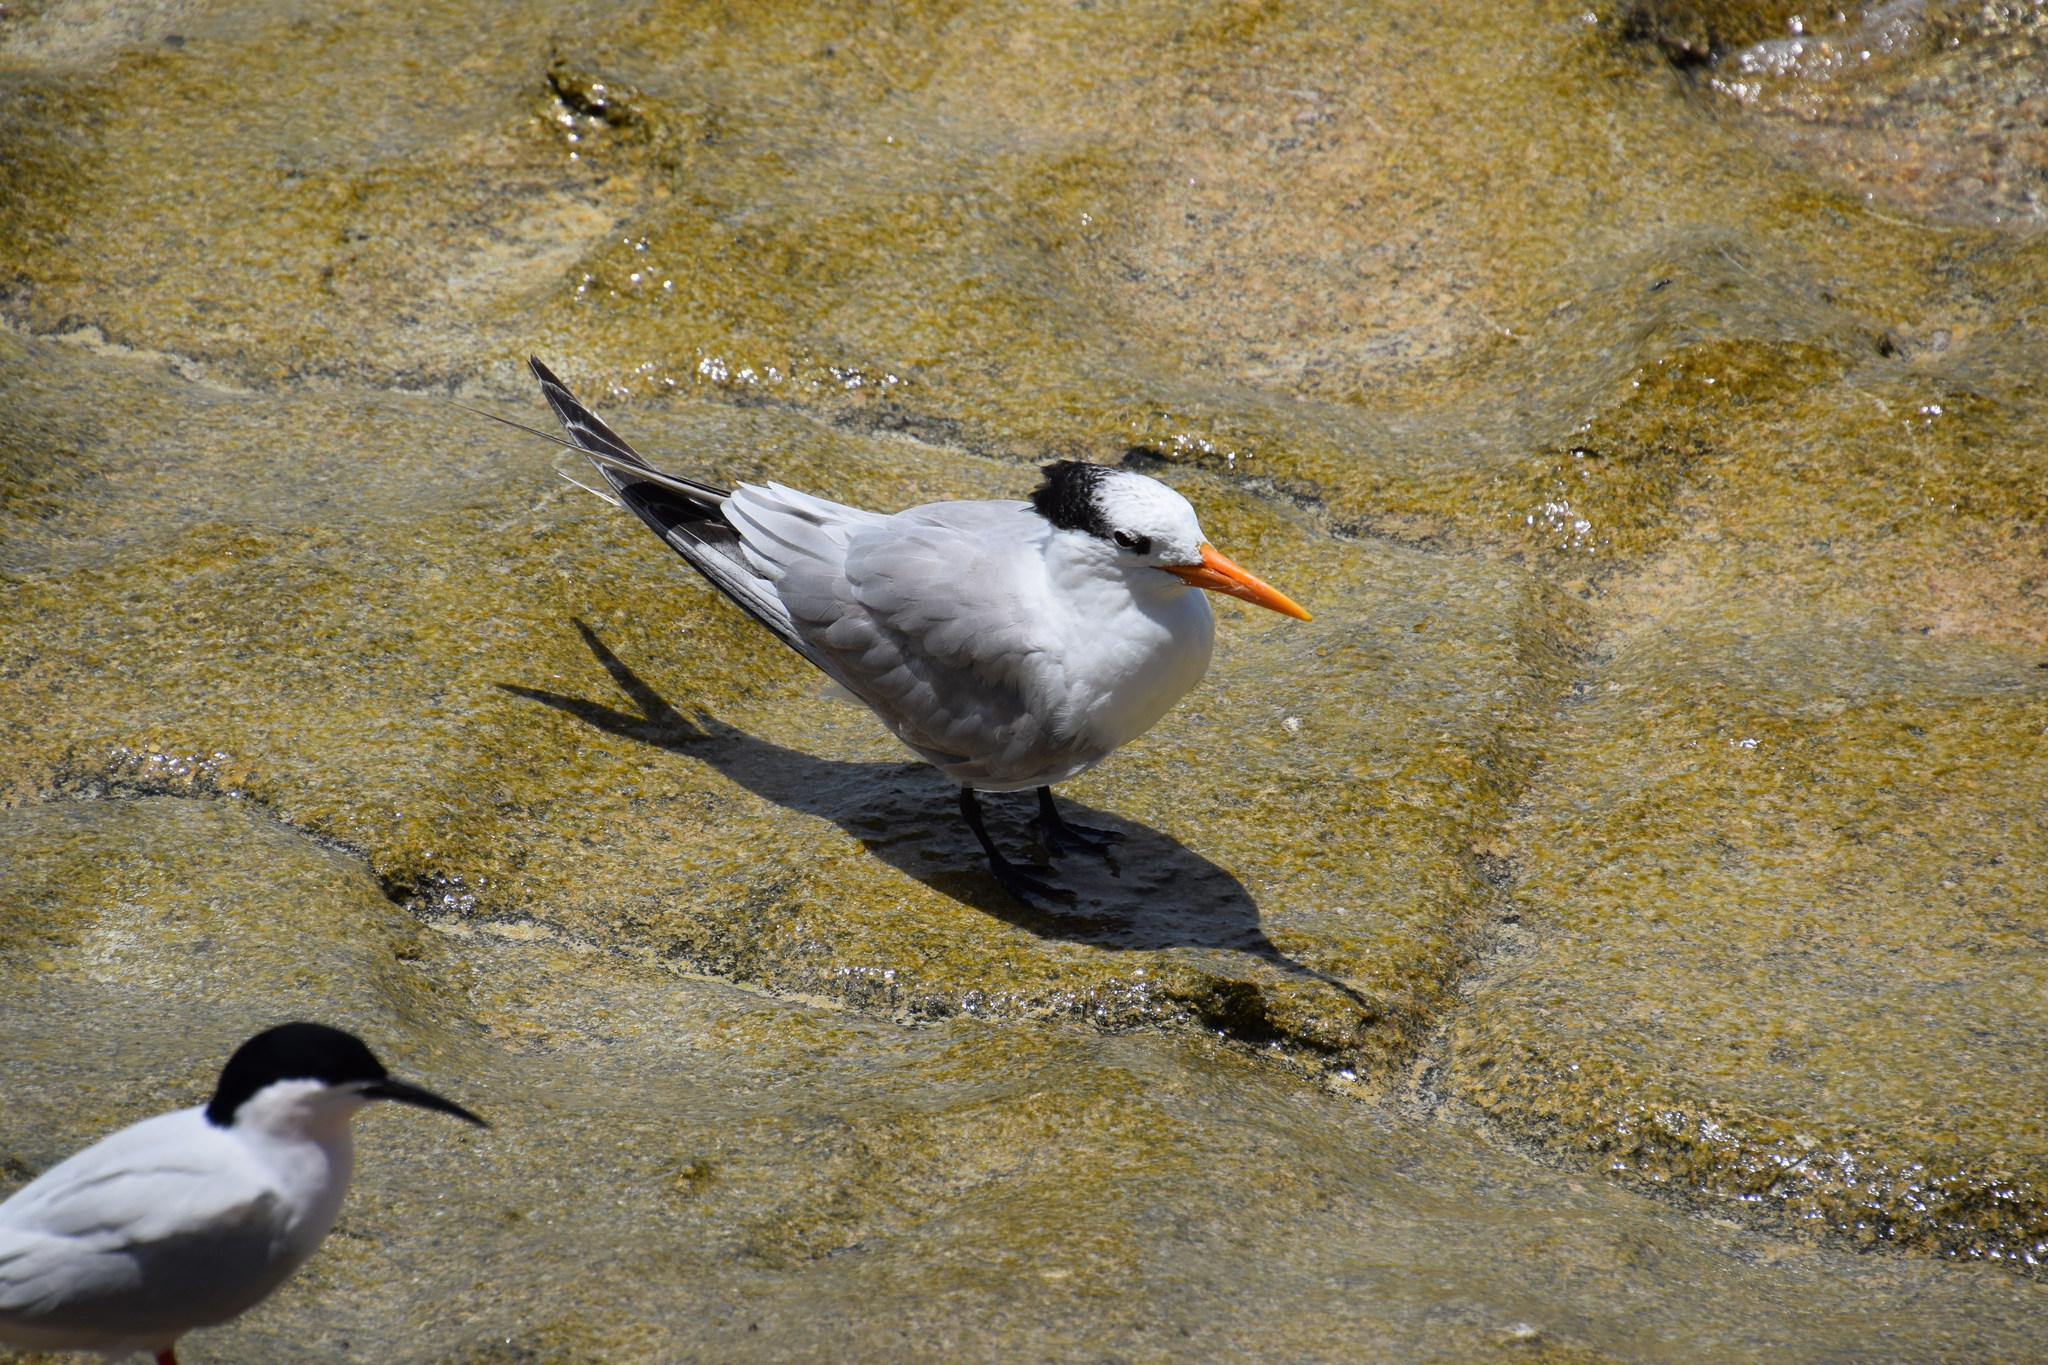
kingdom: Animalia
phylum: Chordata
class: Aves
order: Charadriiformes
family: Laridae
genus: Thalasseus
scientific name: Thalasseus bengalensis
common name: Lesser crested tern
